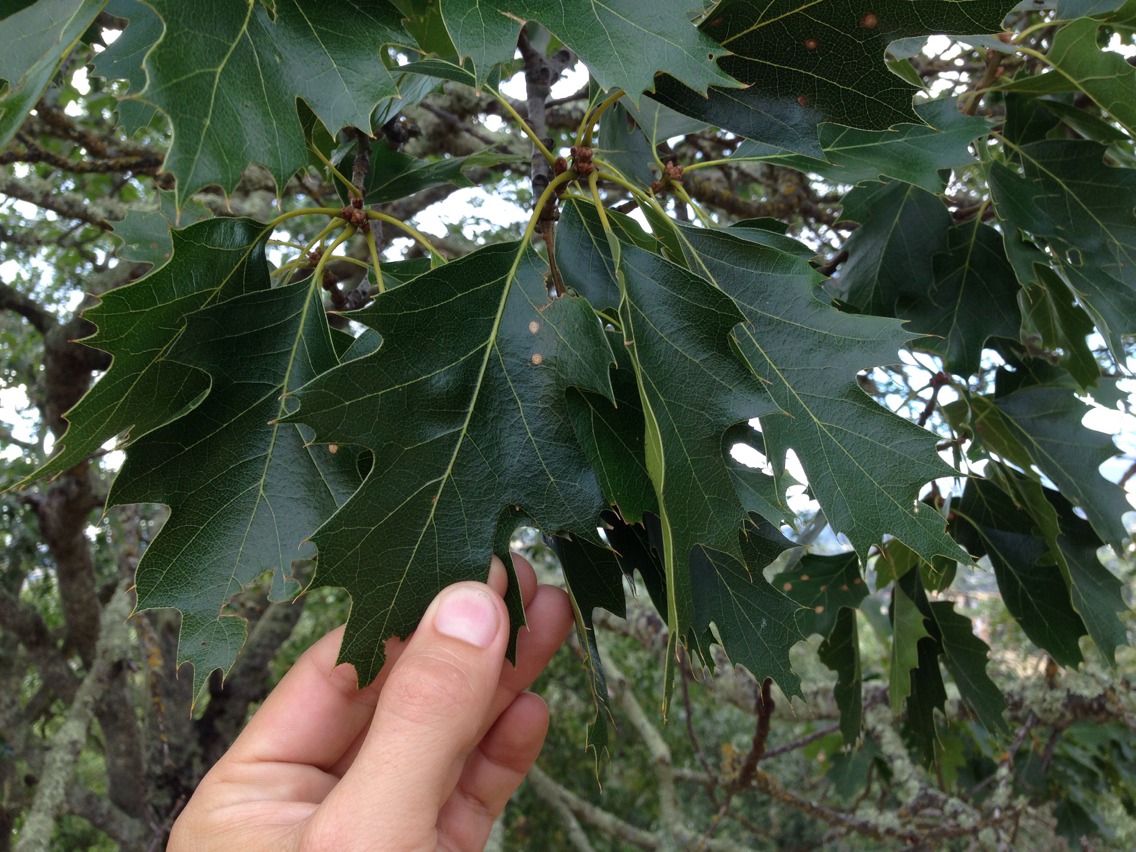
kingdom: Plantae
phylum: Tracheophyta
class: Magnoliopsida
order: Fagales
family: Fagaceae
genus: Quercus
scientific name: Quercus kelloggii
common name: California black oak
